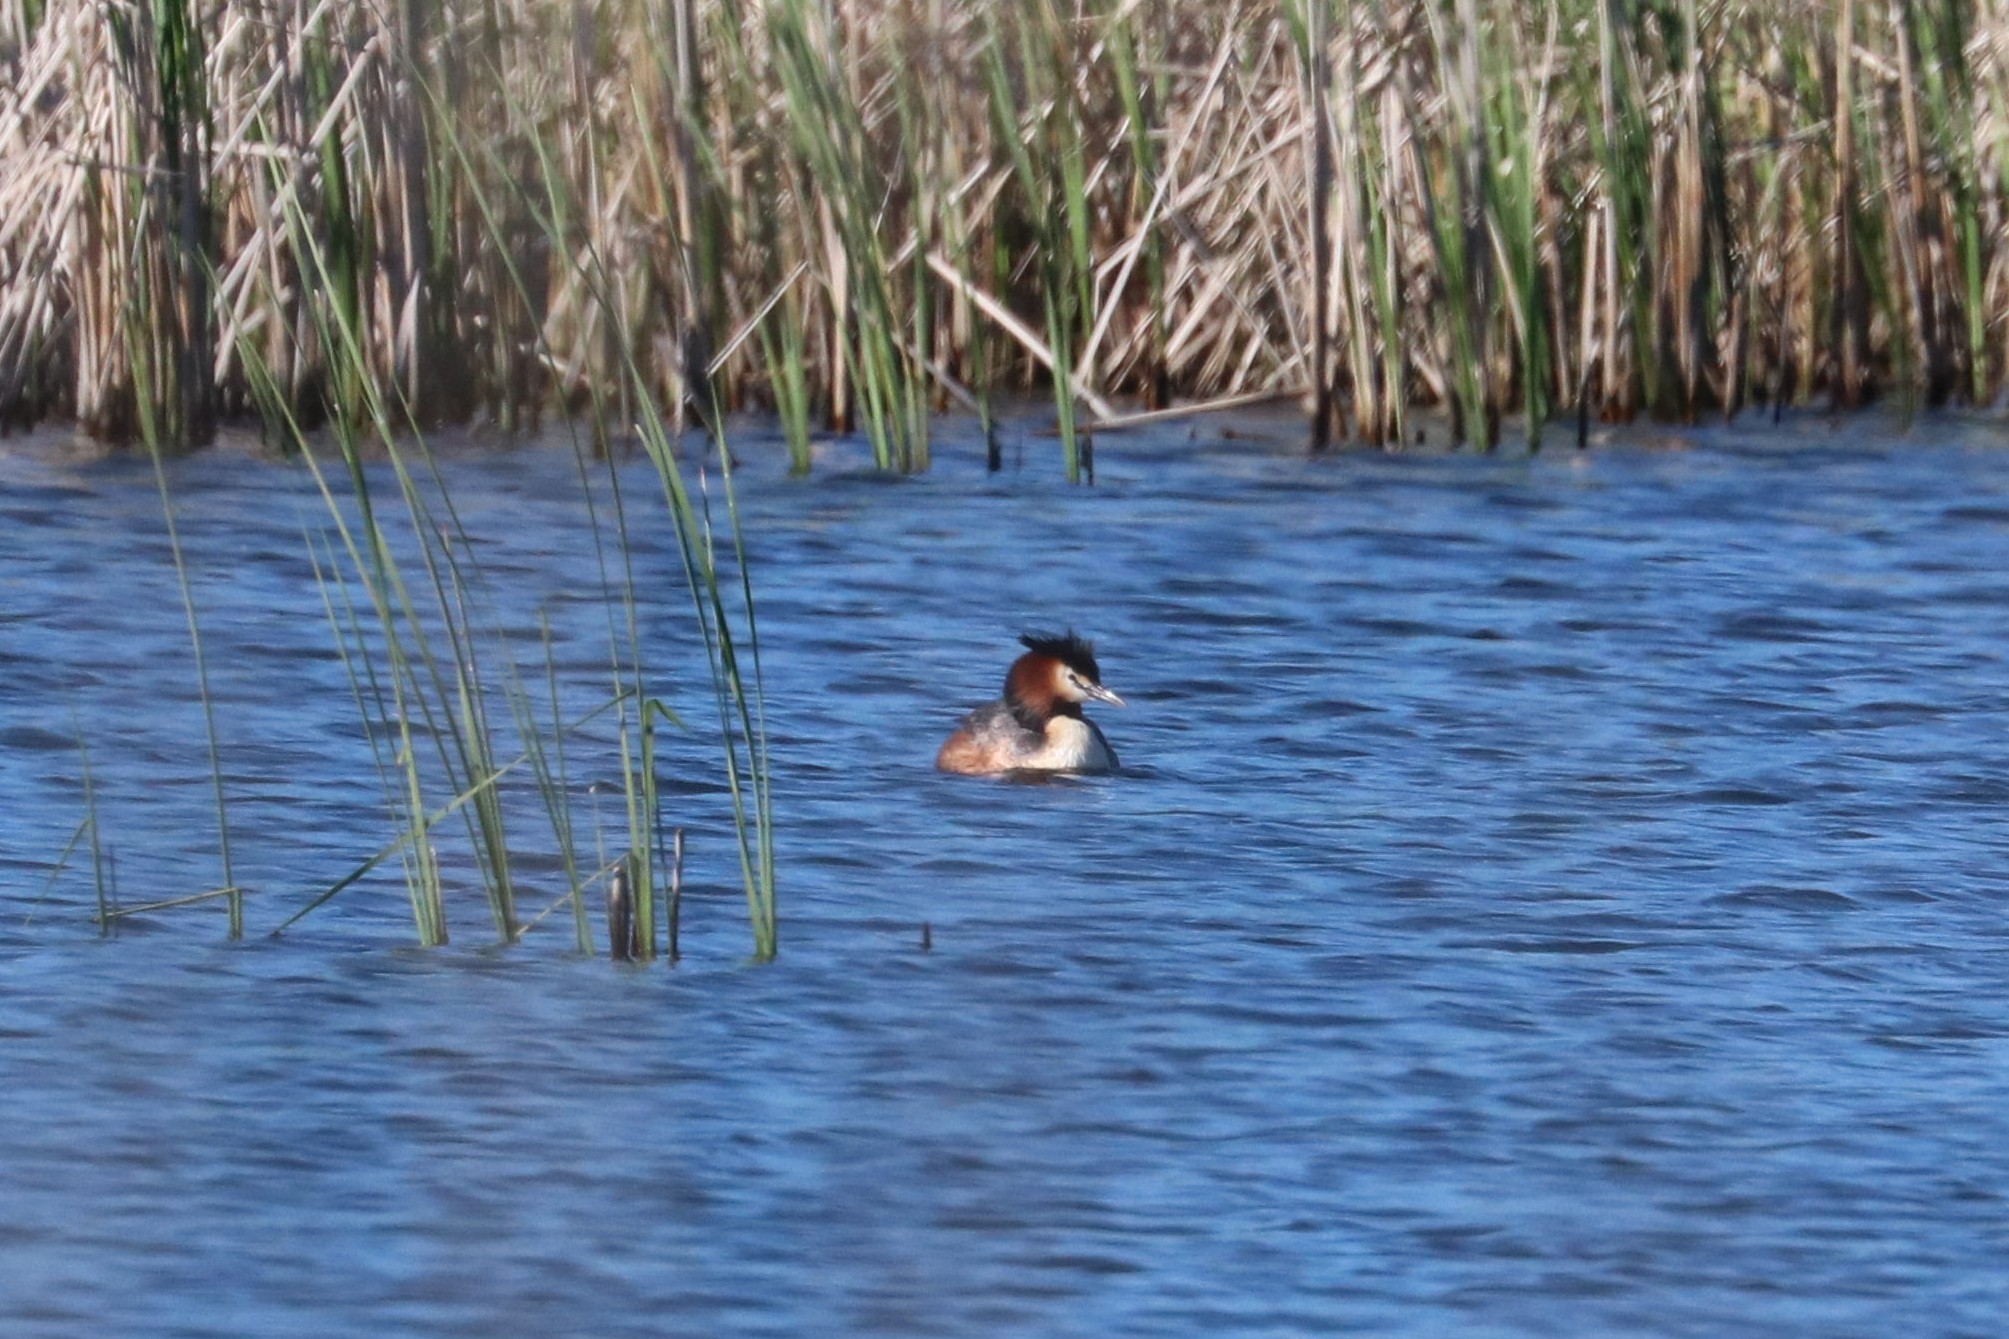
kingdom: Animalia
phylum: Chordata
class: Aves
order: Podicipediformes
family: Podicipedidae
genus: Podiceps
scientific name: Podiceps cristatus
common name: Great crested grebe
